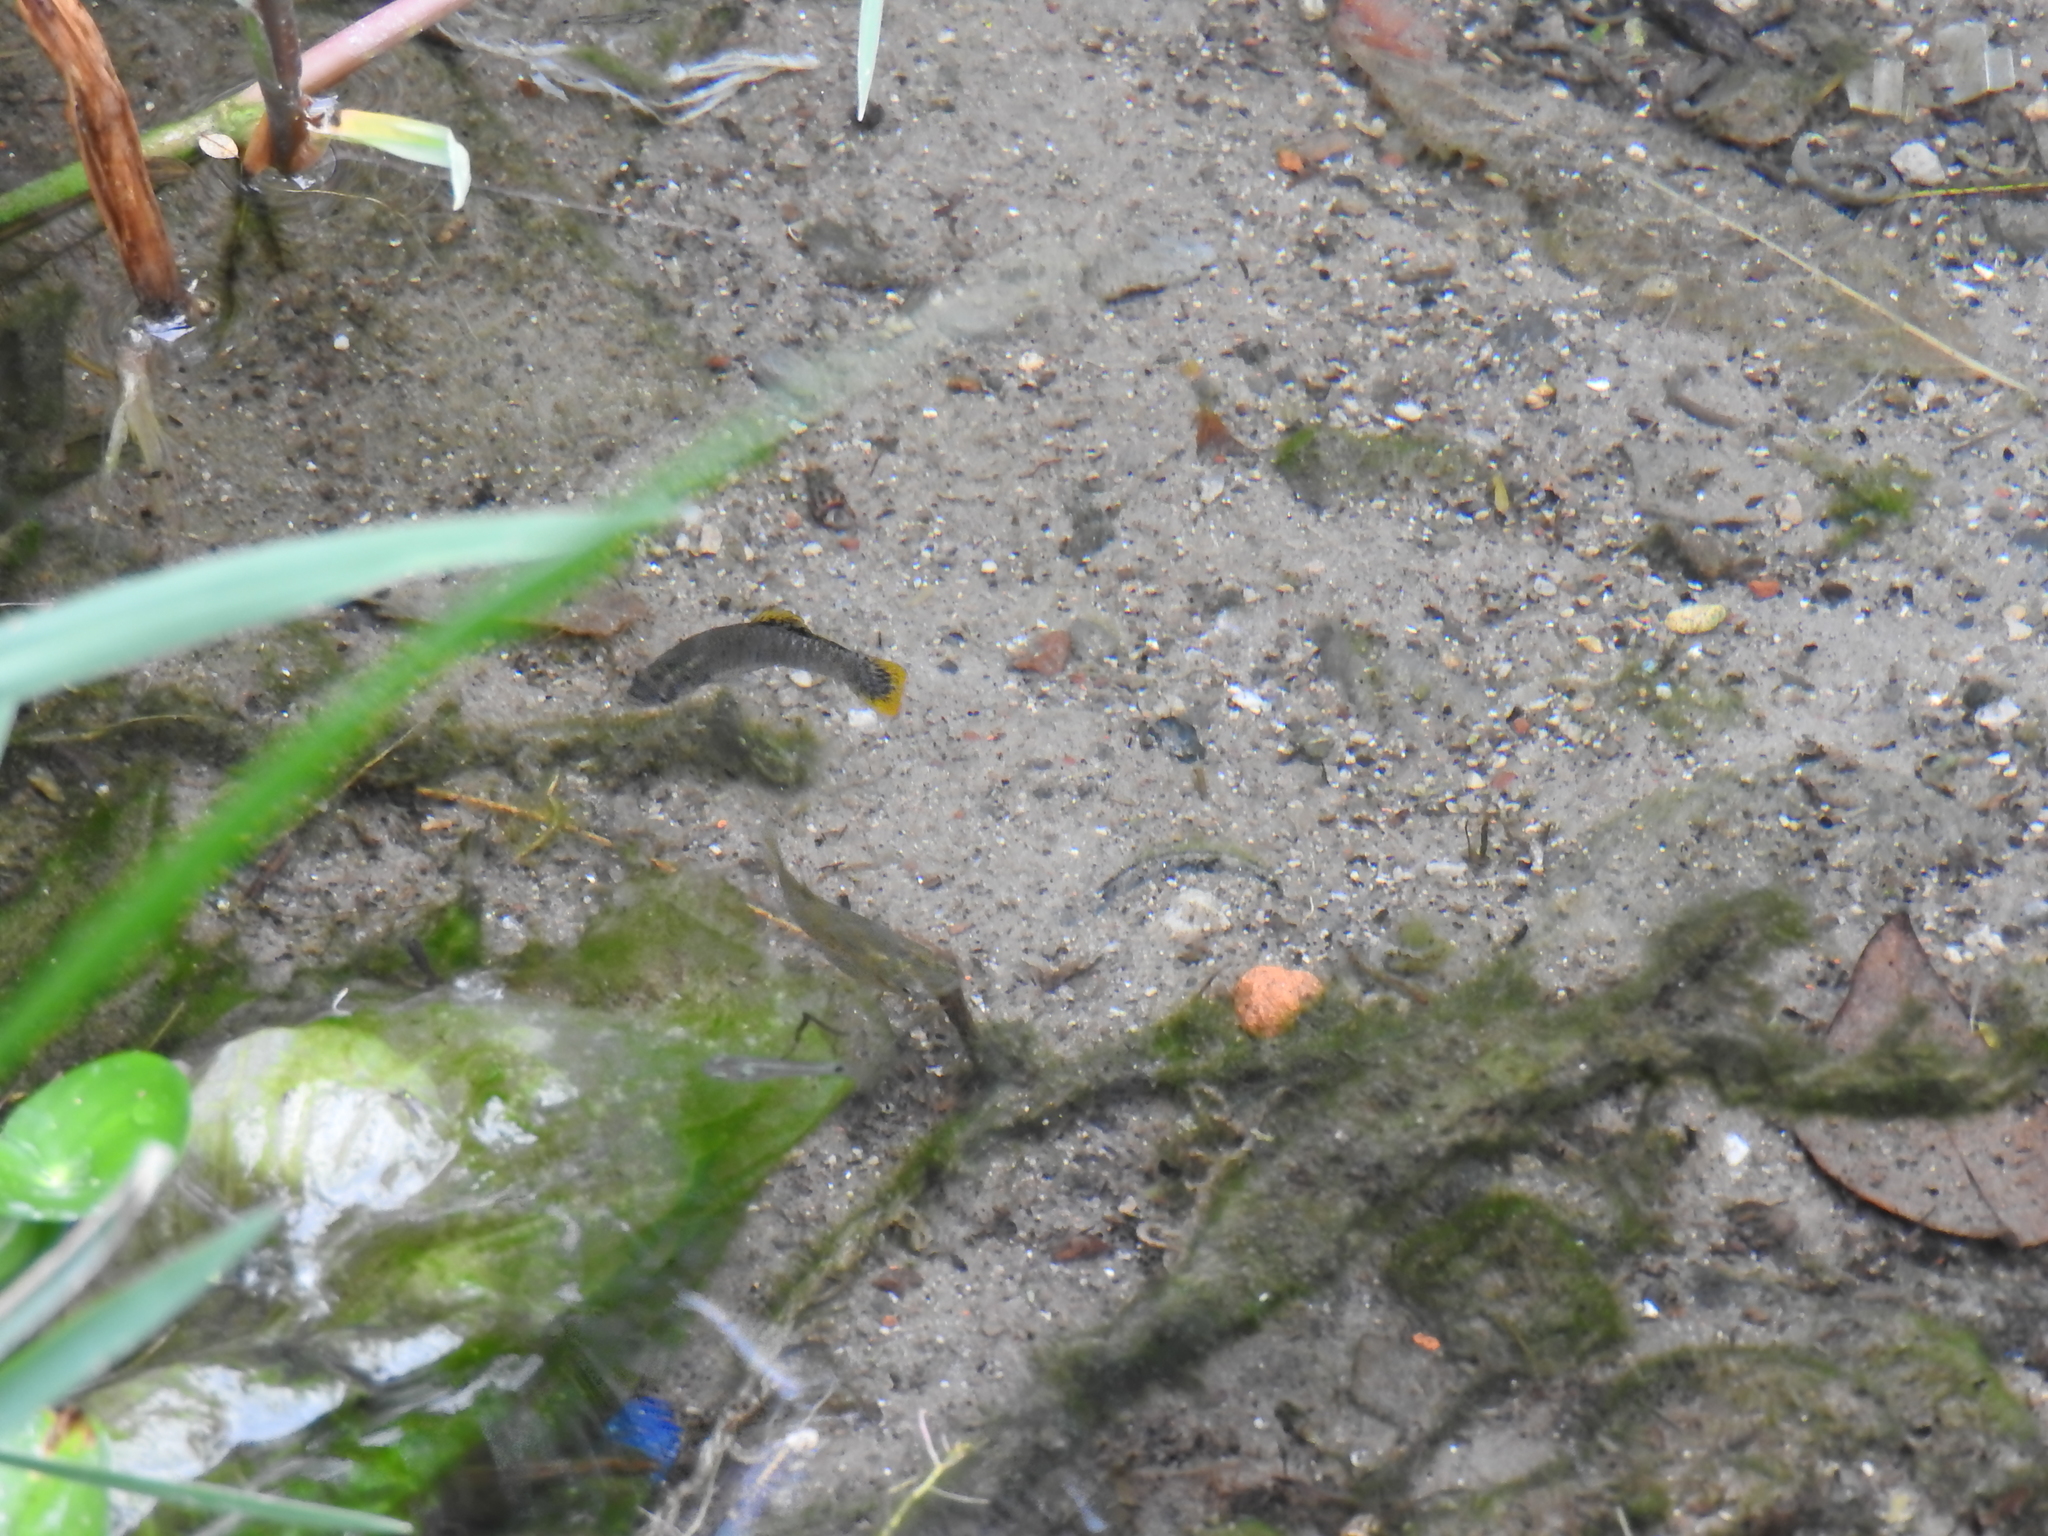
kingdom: Animalia
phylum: Chordata
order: Cyprinodontiformes
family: Poeciliidae
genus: Poecilia
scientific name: Poecilia mexicana
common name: Shortfin molly
